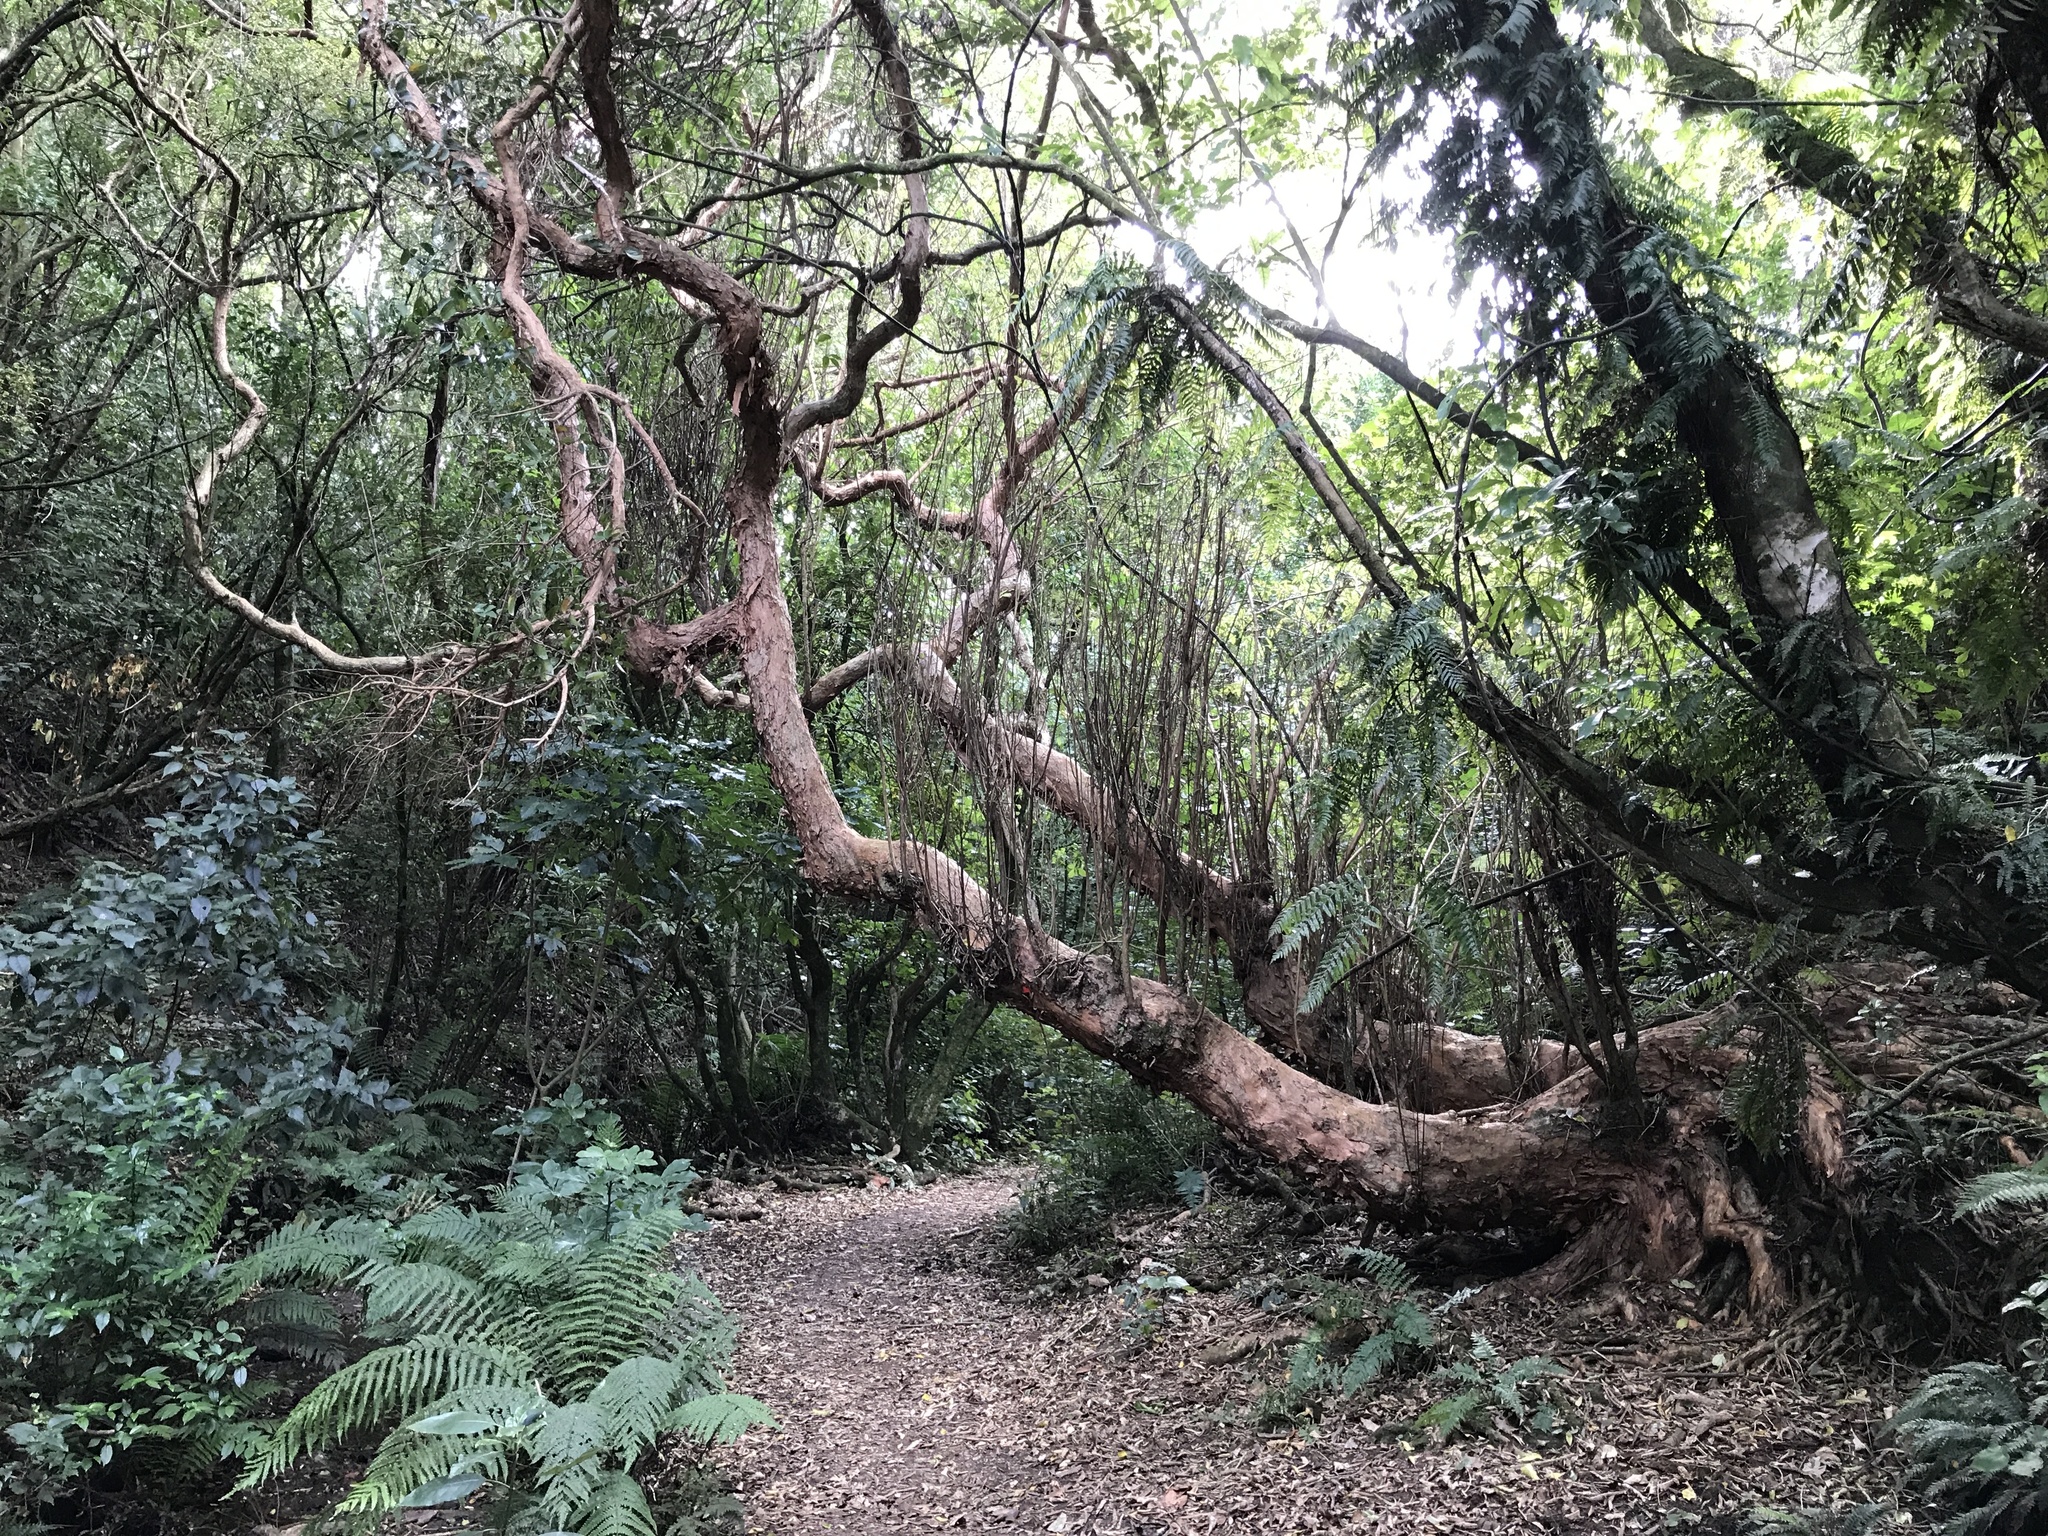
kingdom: Plantae
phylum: Tracheophyta
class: Magnoliopsida
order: Myrtales
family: Onagraceae
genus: Fuchsia
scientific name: Fuchsia excorticata
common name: Tree fuchsia
